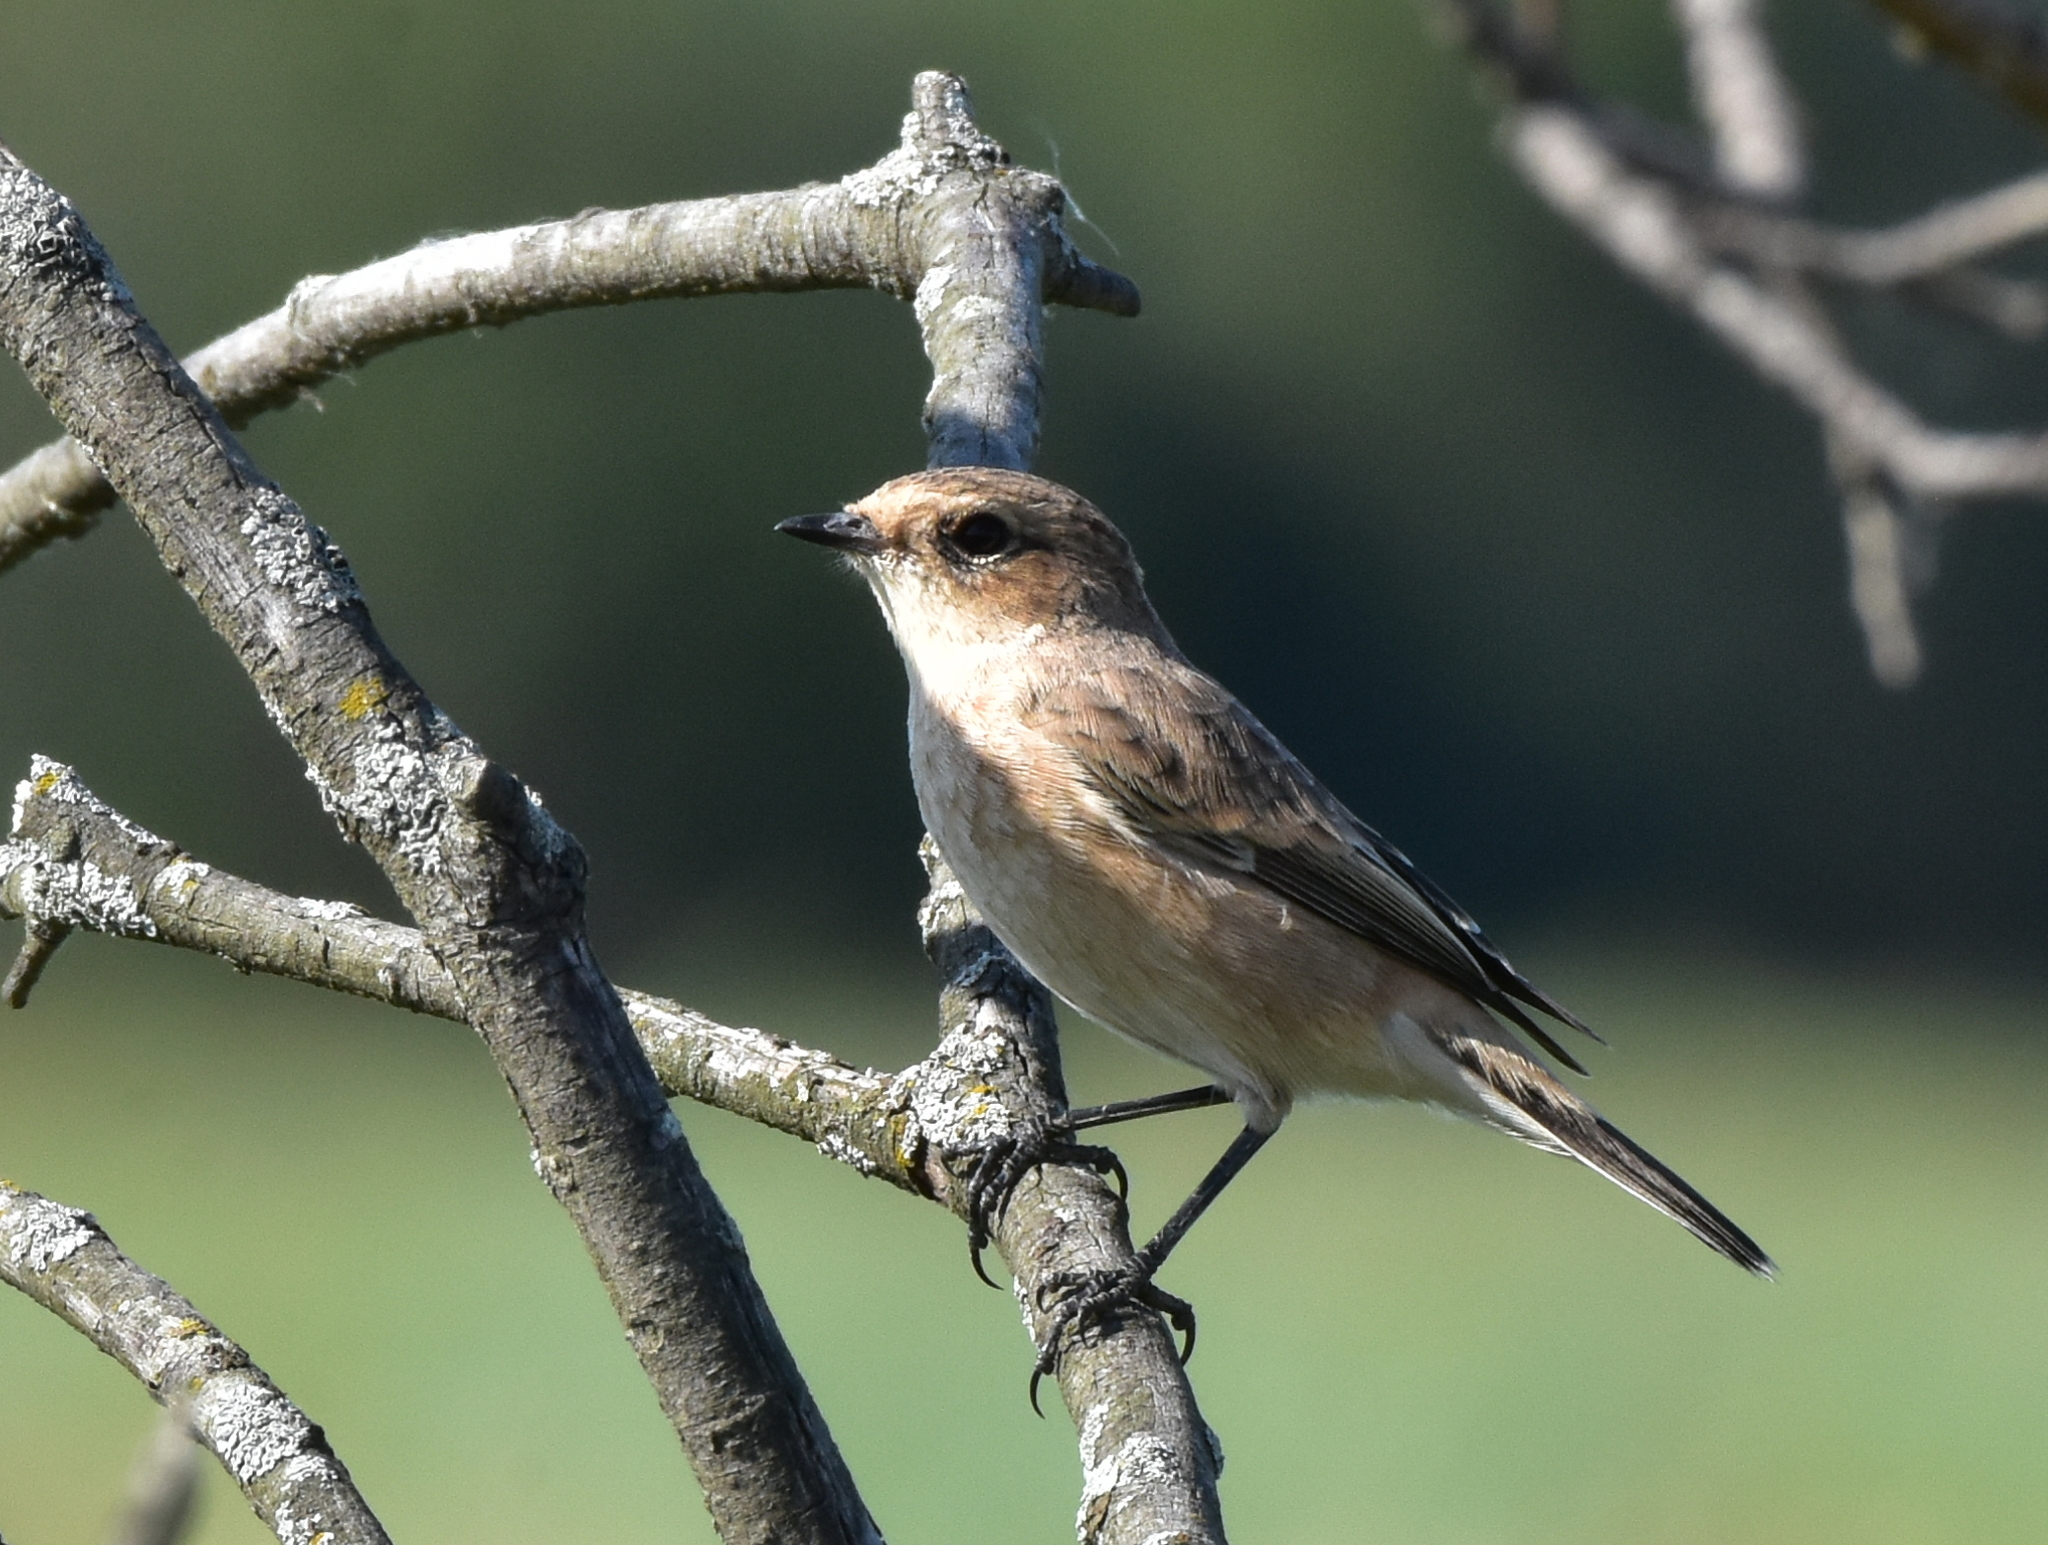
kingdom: Animalia
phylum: Chordata
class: Aves
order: Passeriformes
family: Muscicapidae
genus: Saxicola
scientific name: Saxicola maurus
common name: Siberian stonechat
